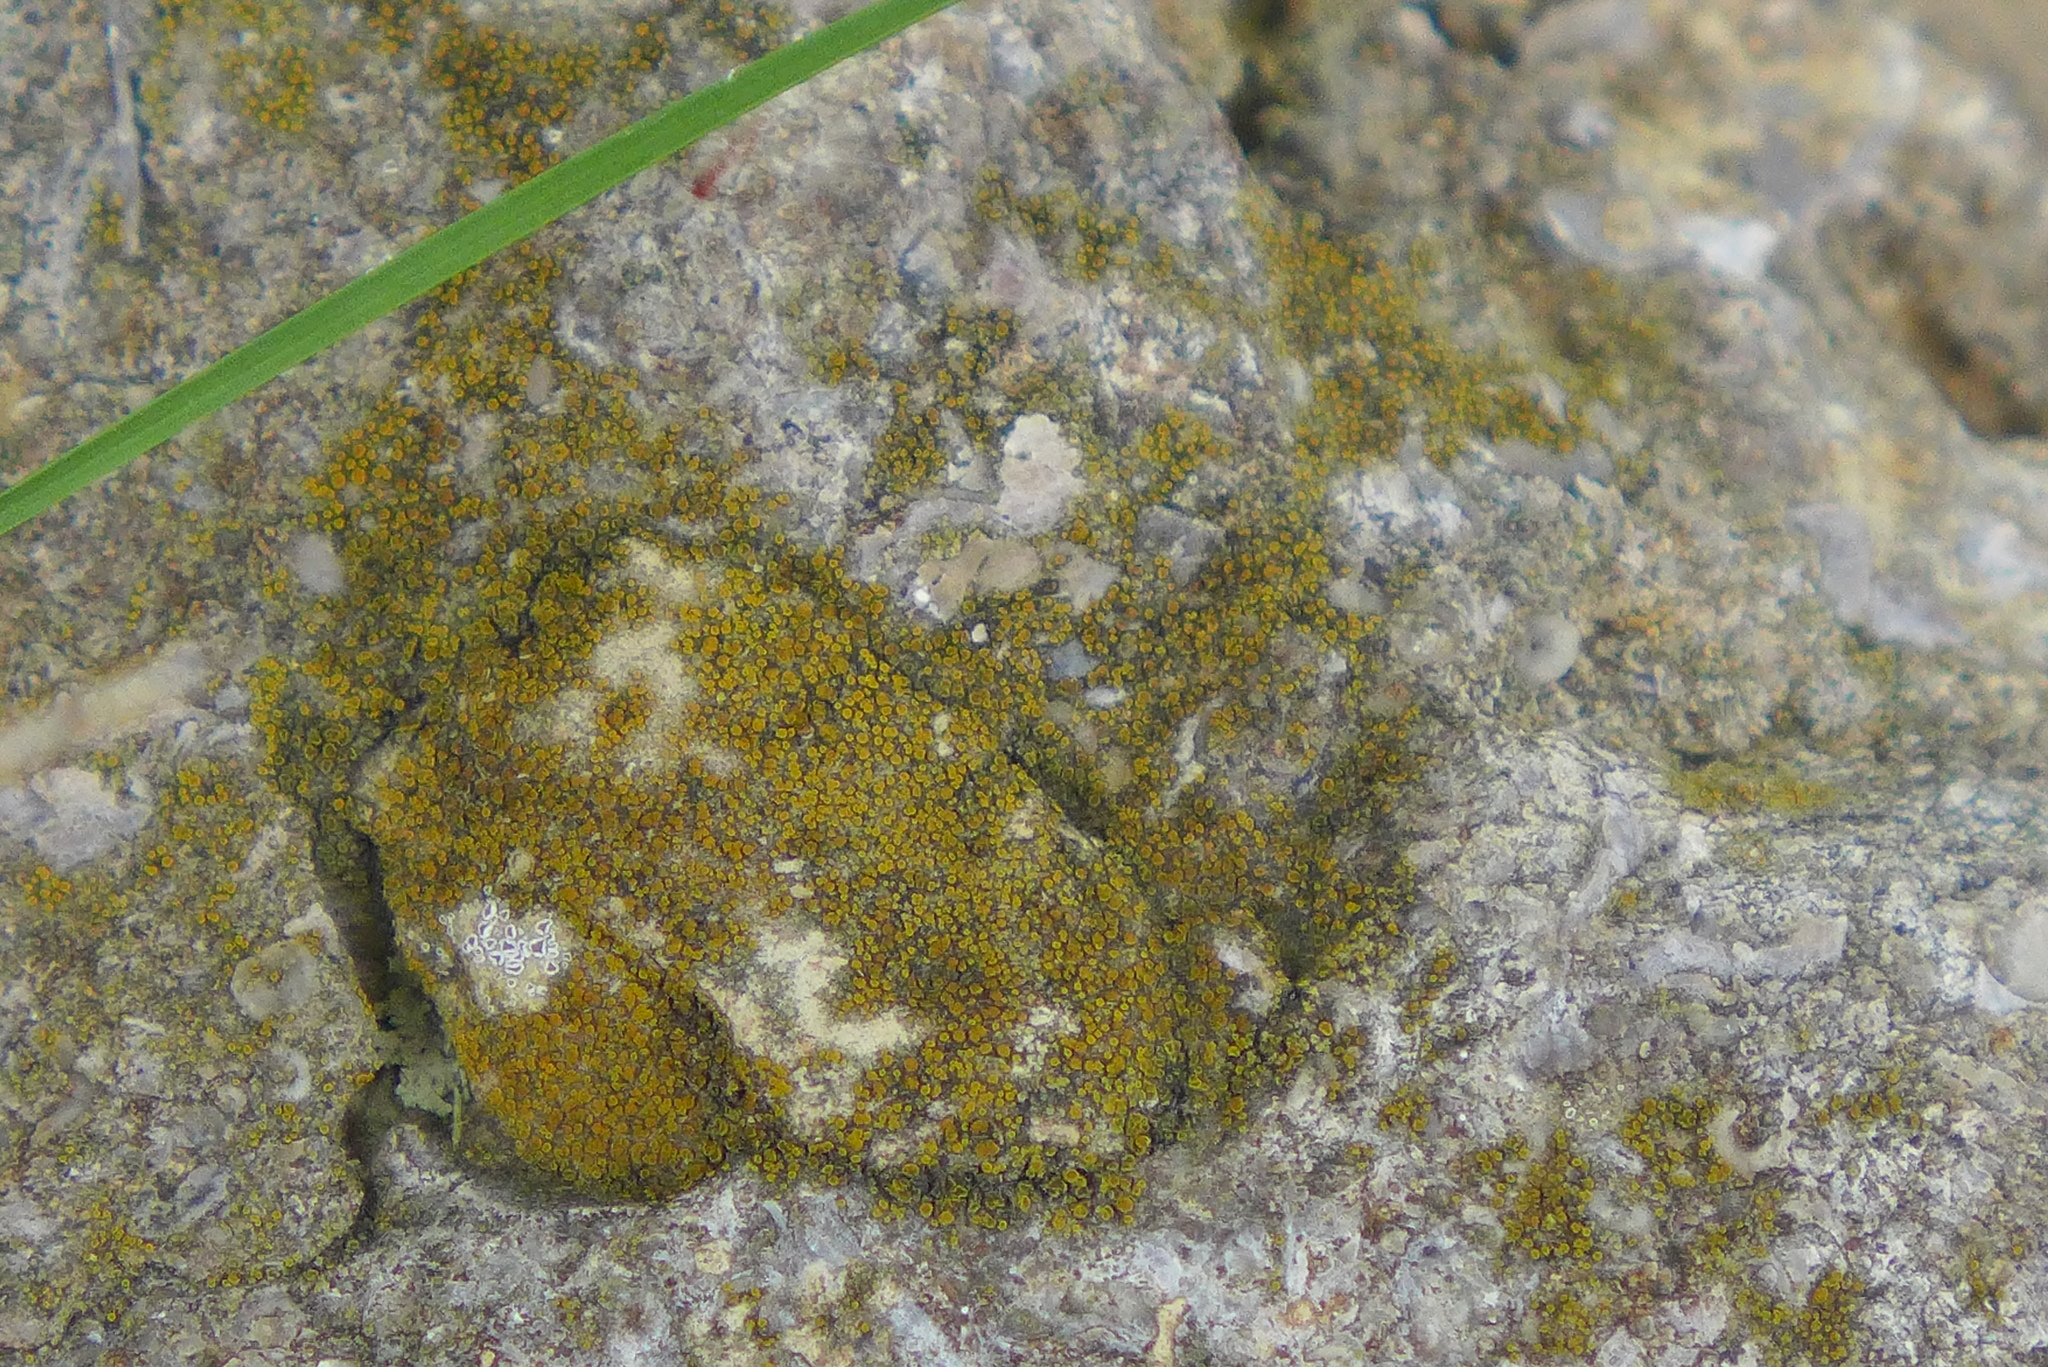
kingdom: Fungi
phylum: Ascomycota
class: Lecanoromycetes
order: Teloschistales
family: Teloschistaceae
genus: Xanthocarpia
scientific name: Xanthocarpia feracissima
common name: Sidewalk firedot
